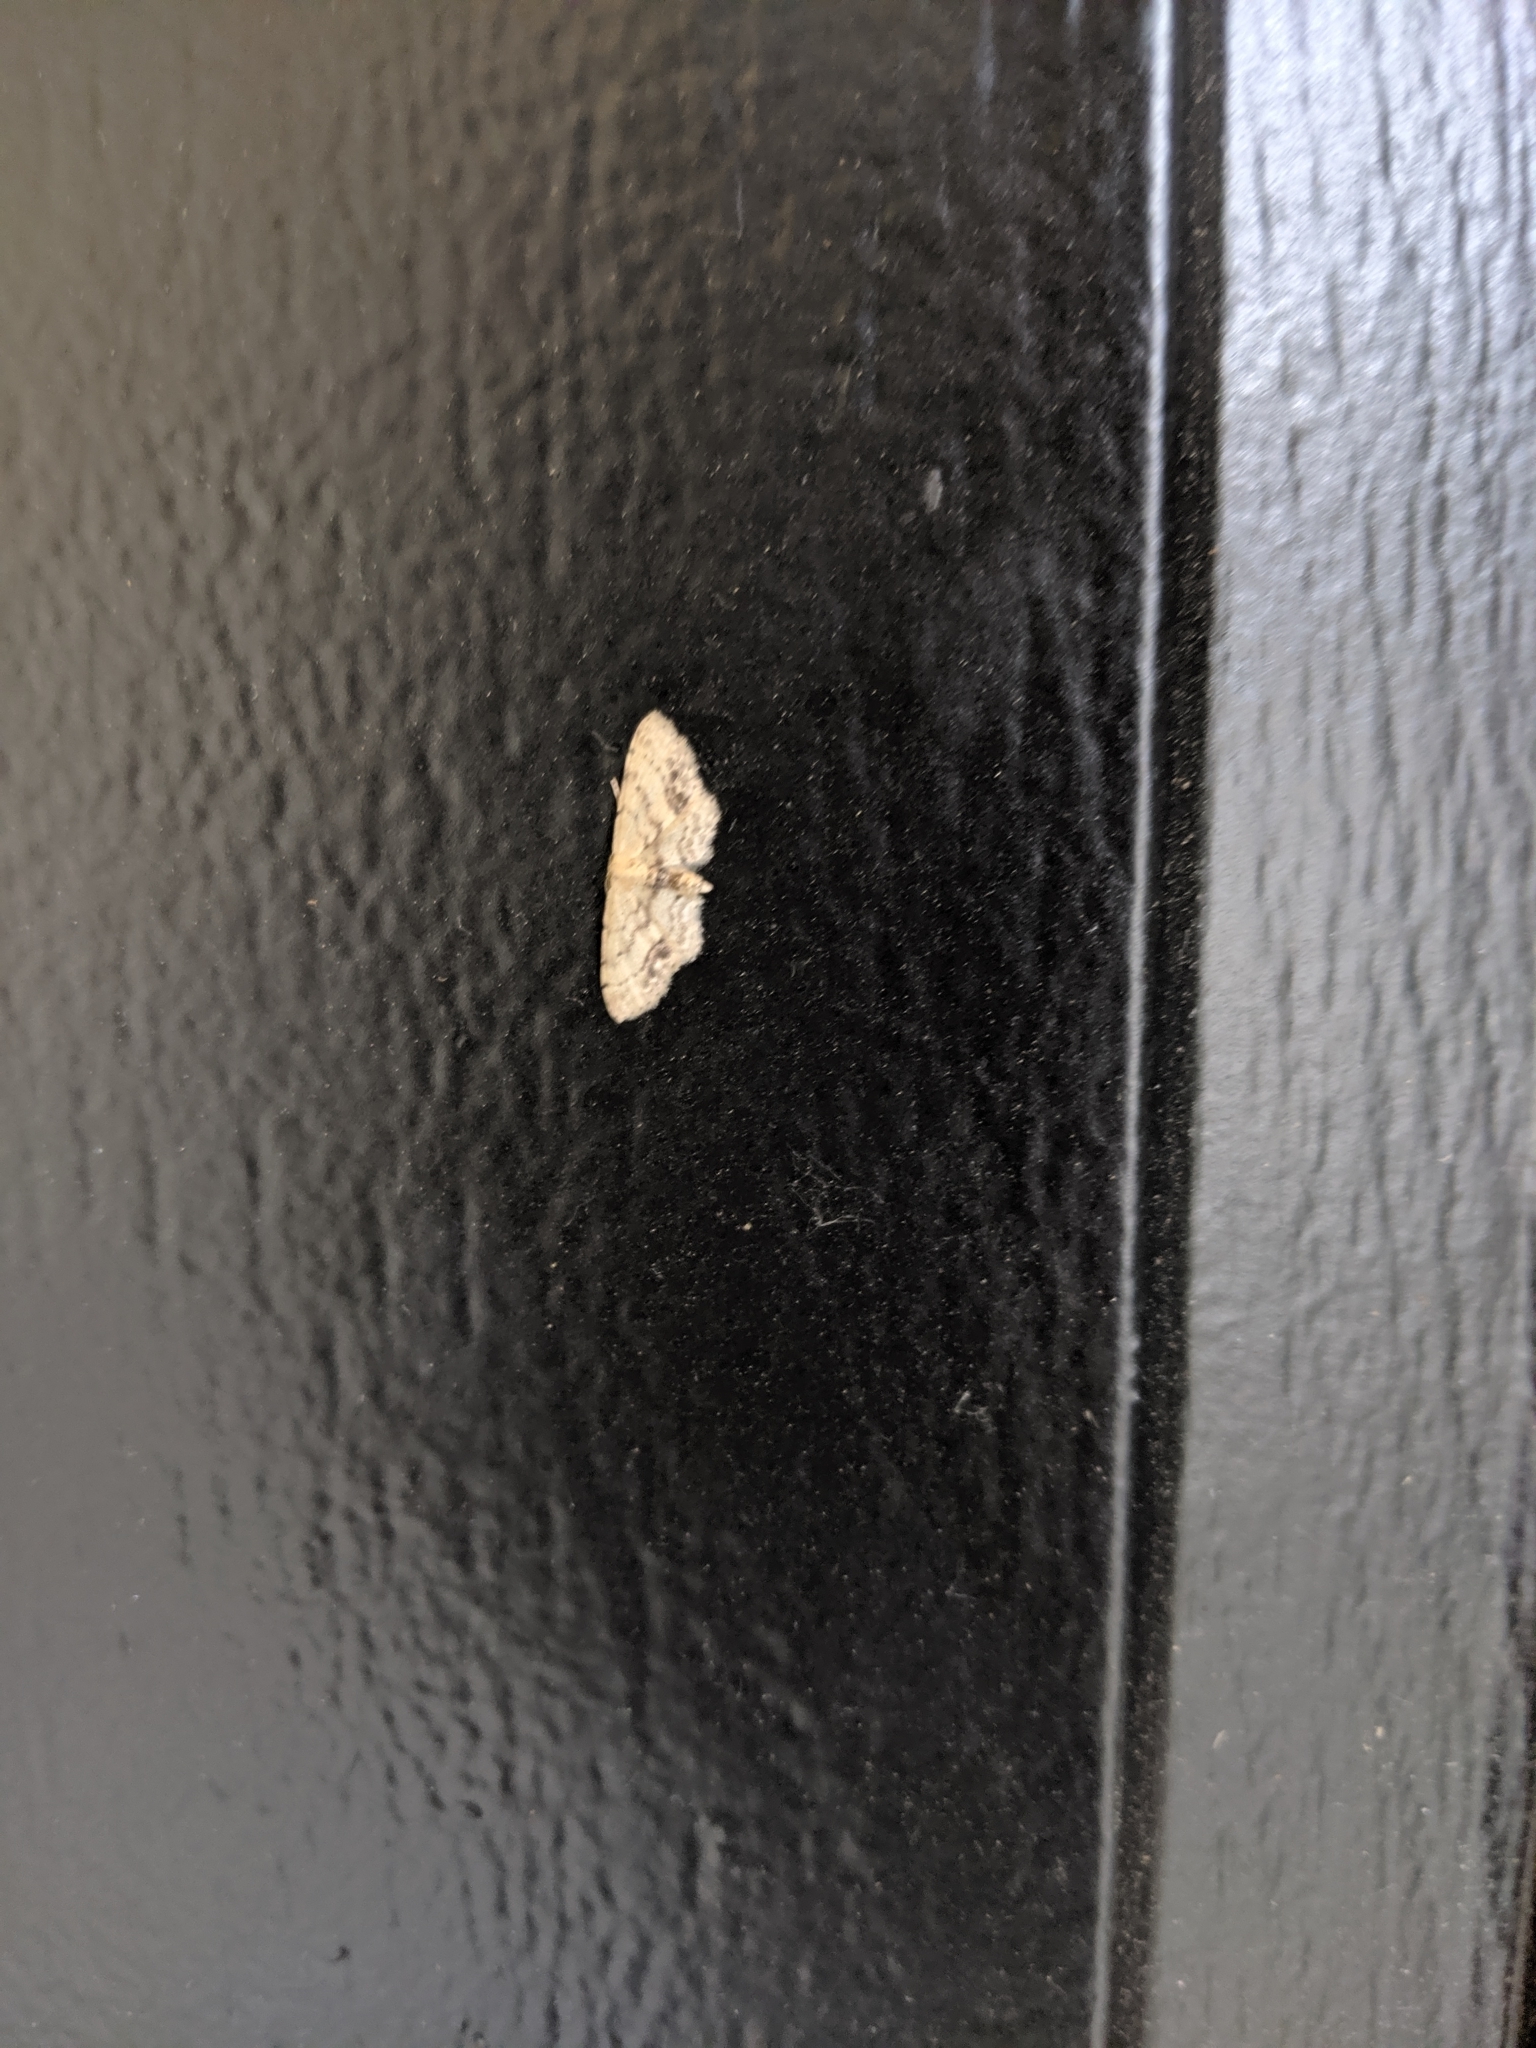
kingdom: Animalia
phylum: Arthropoda
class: Insecta
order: Lepidoptera
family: Geometridae
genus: Idaea
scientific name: Idaea dimidiata
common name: Single-dotted wave
